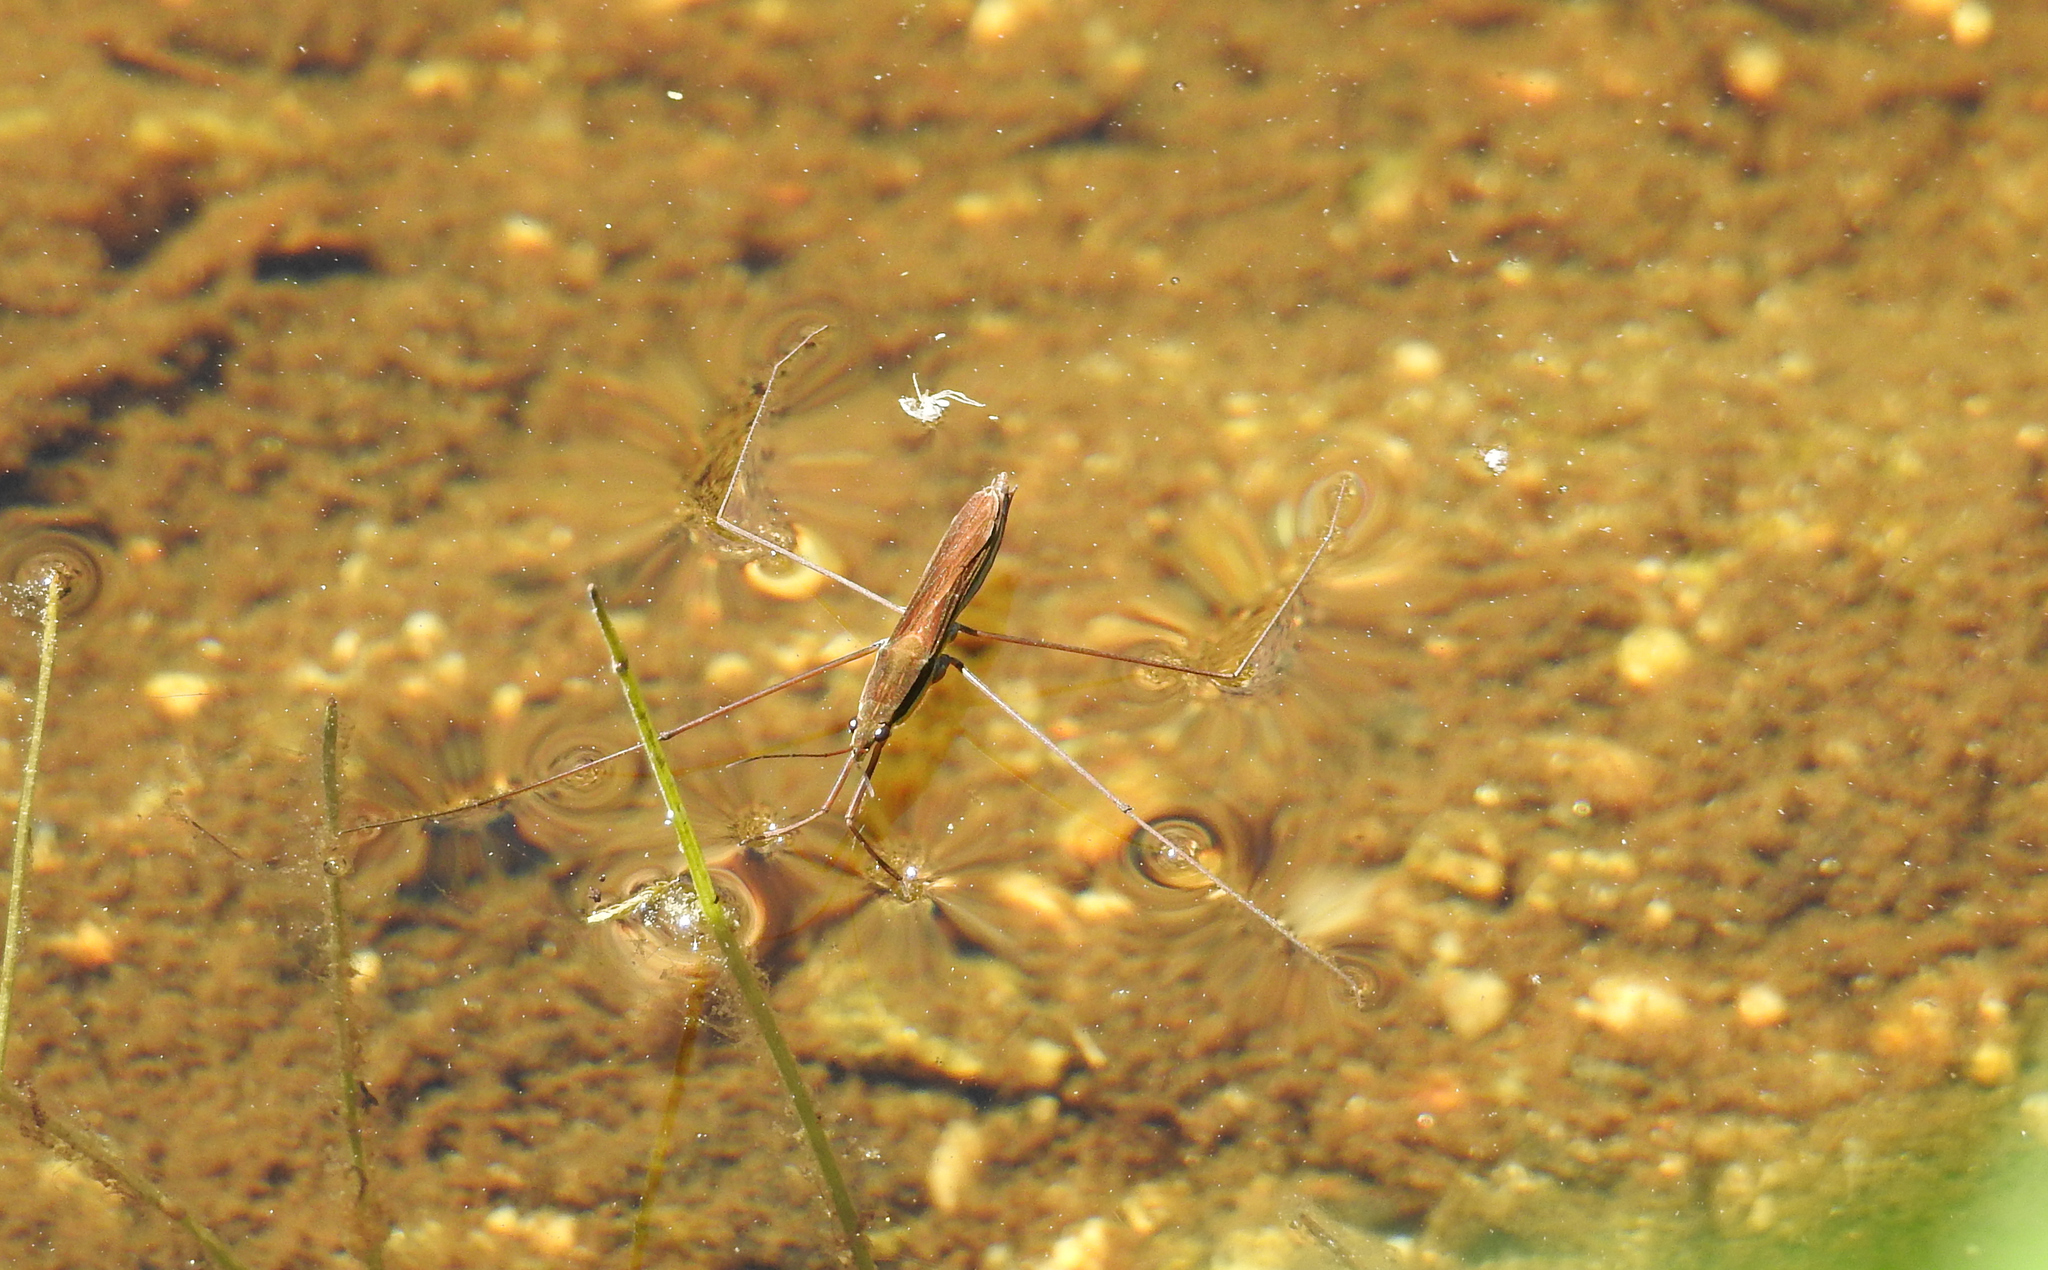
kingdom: Animalia
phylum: Arthropoda
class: Insecta
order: Hemiptera
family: Gerridae
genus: Limnoporus
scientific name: Limnoporus notabilis
